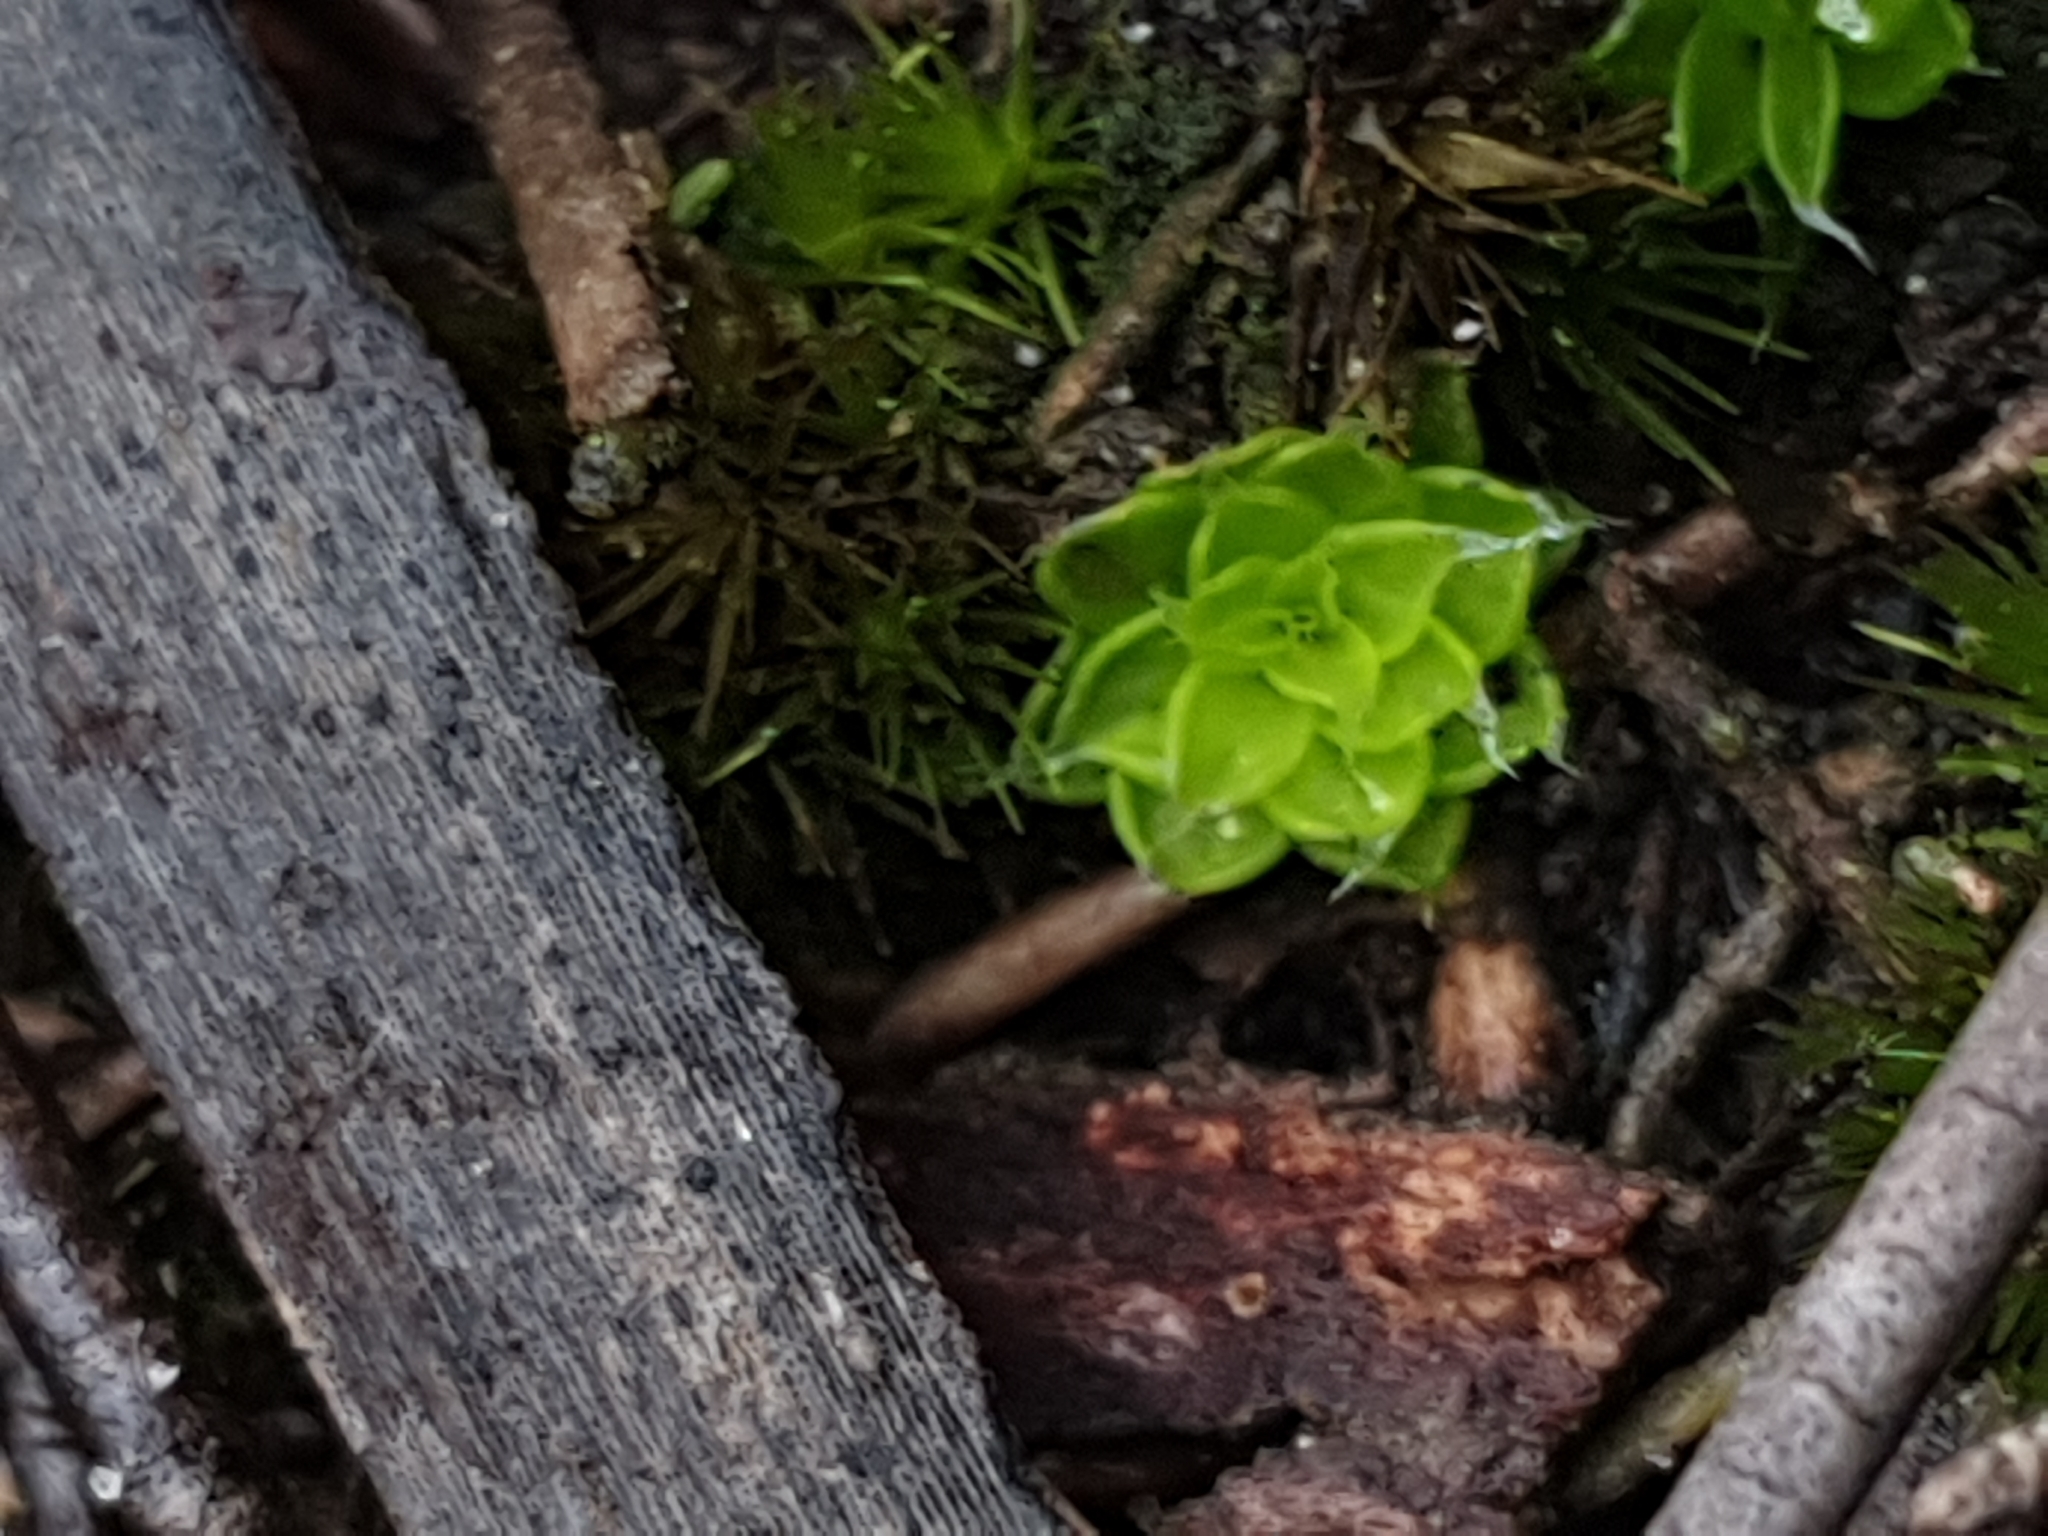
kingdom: Plantae
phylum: Bryophyta
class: Bryopsida
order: Pottiales
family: Pleurophascaceae
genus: Pleurophascum
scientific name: Pleurophascum occidentale
